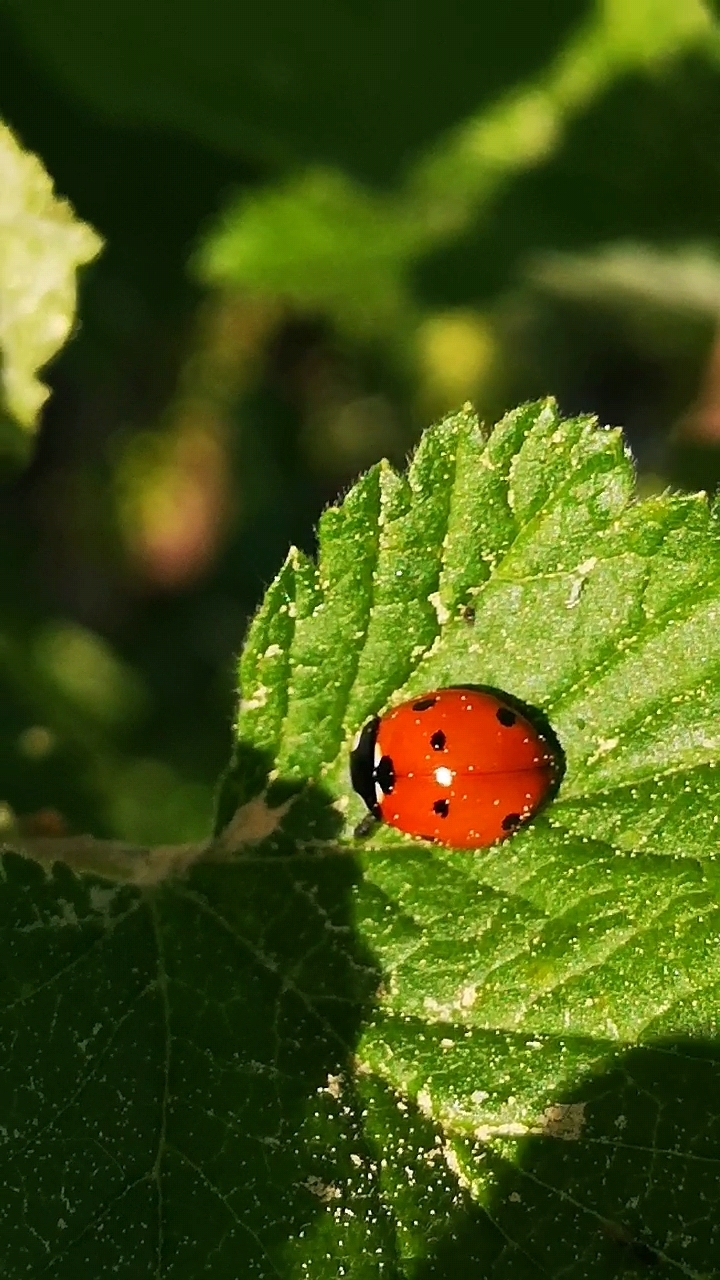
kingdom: Animalia
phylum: Arthropoda
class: Insecta
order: Coleoptera
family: Coccinellidae
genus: Coccinella
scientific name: Coccinella septempunctata
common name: Sevenspotted lady beetle
